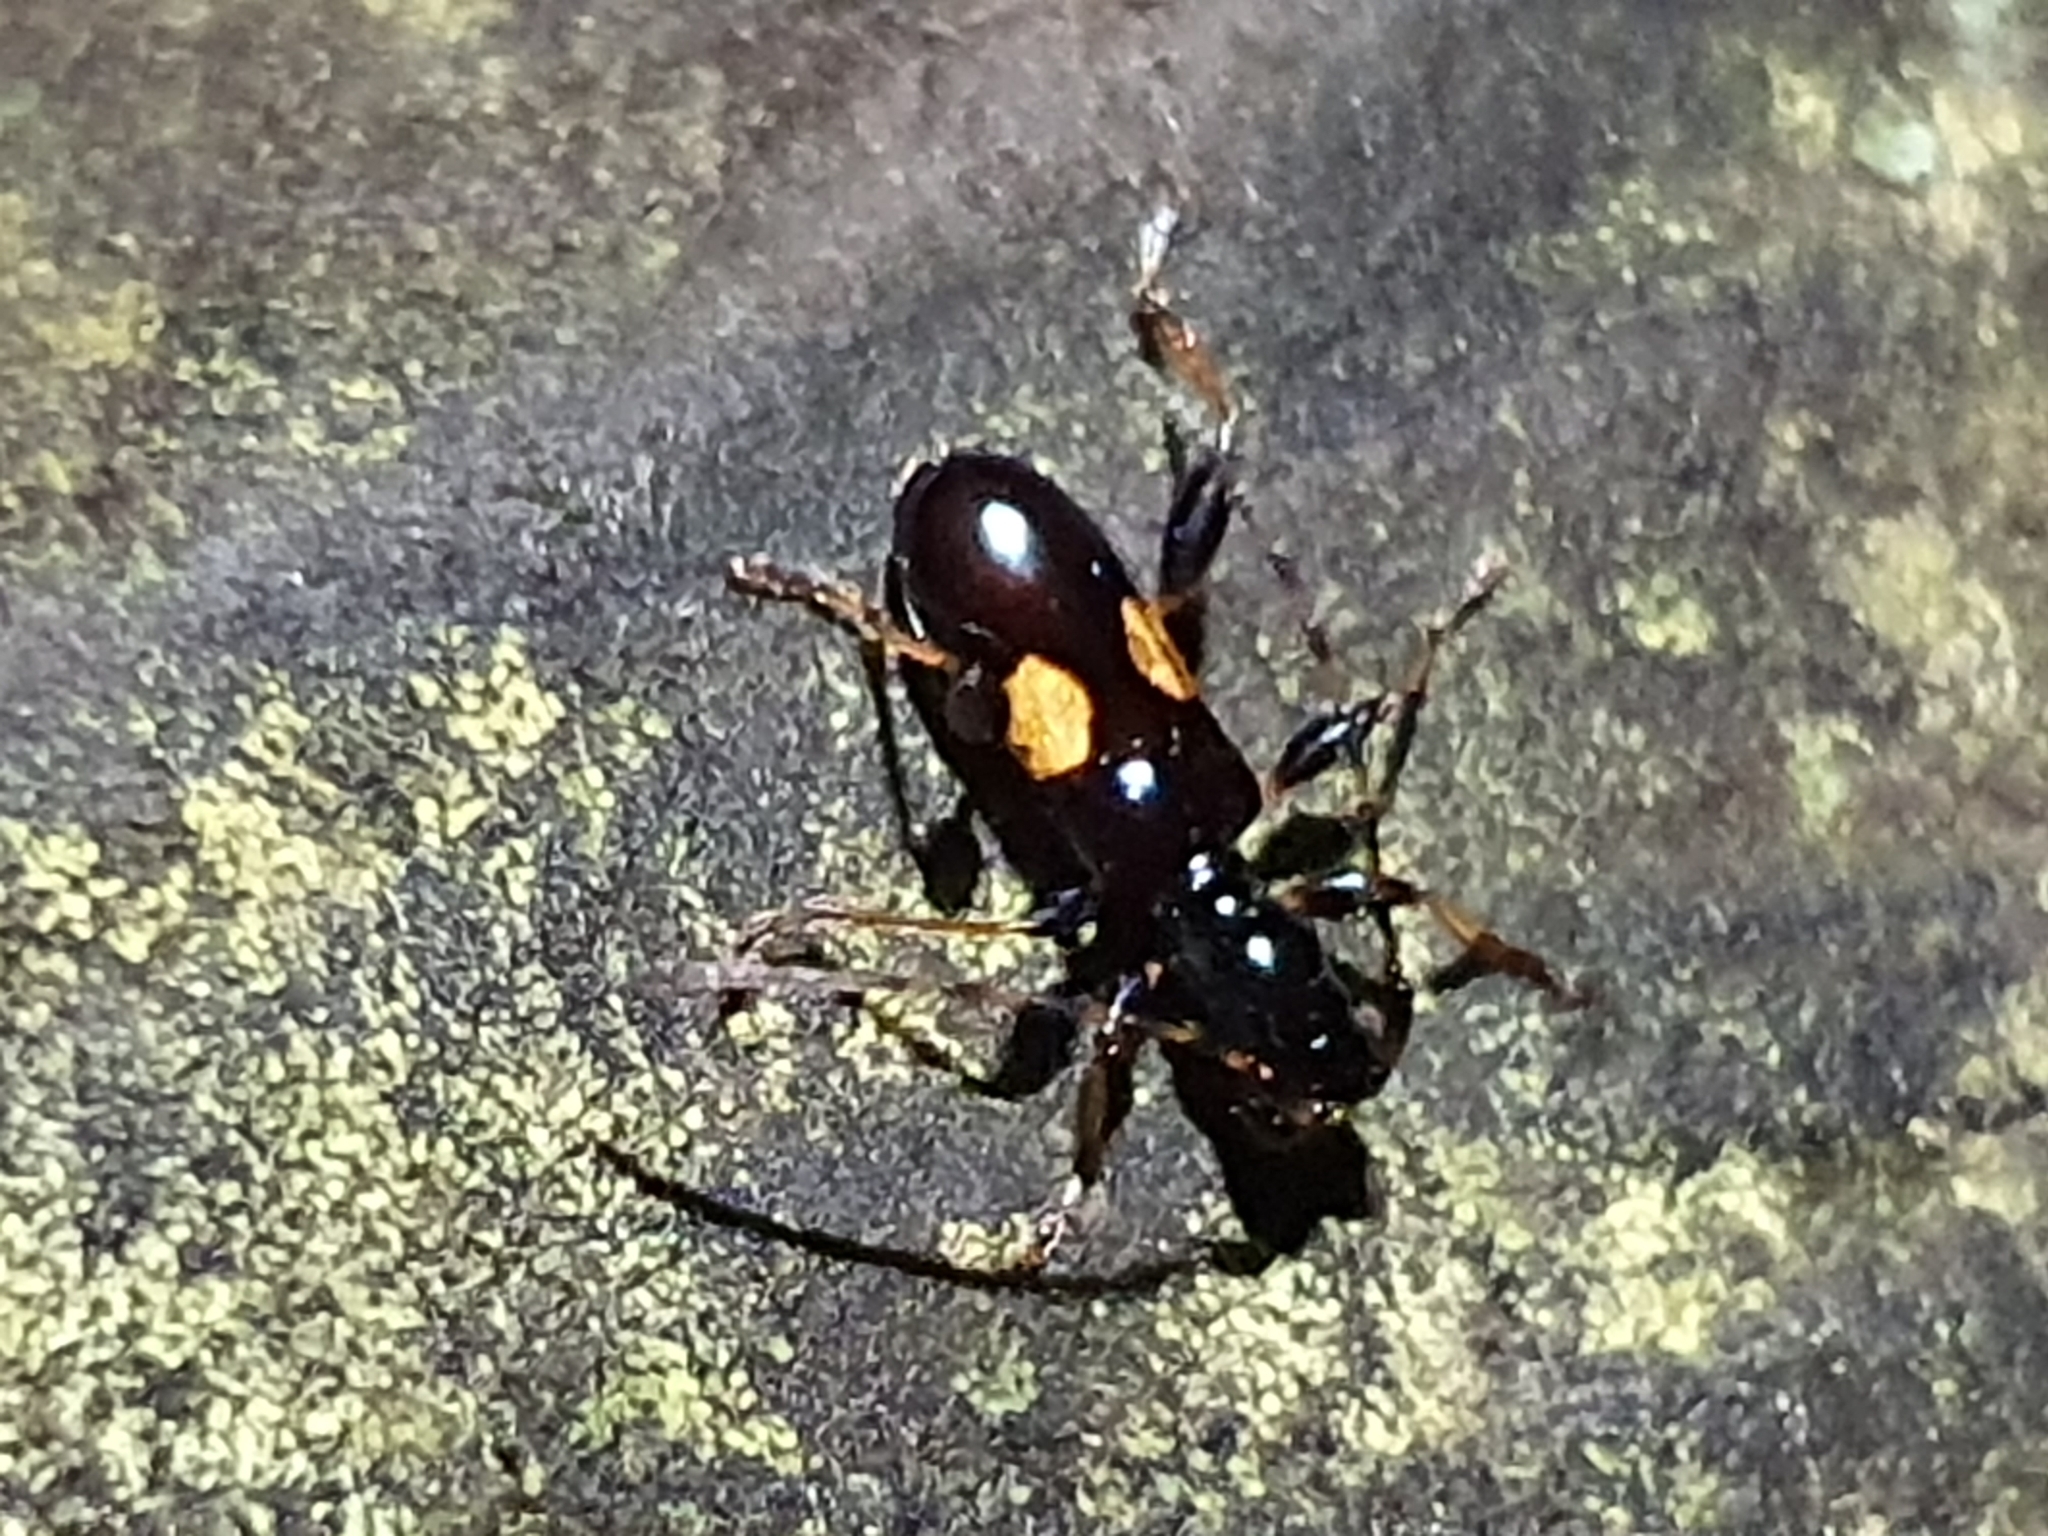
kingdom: Animalia
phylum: Arthropoda
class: Insecta
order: Coleoptera
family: Cerambycidae
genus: Zorion
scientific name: Zorion guttigerum
